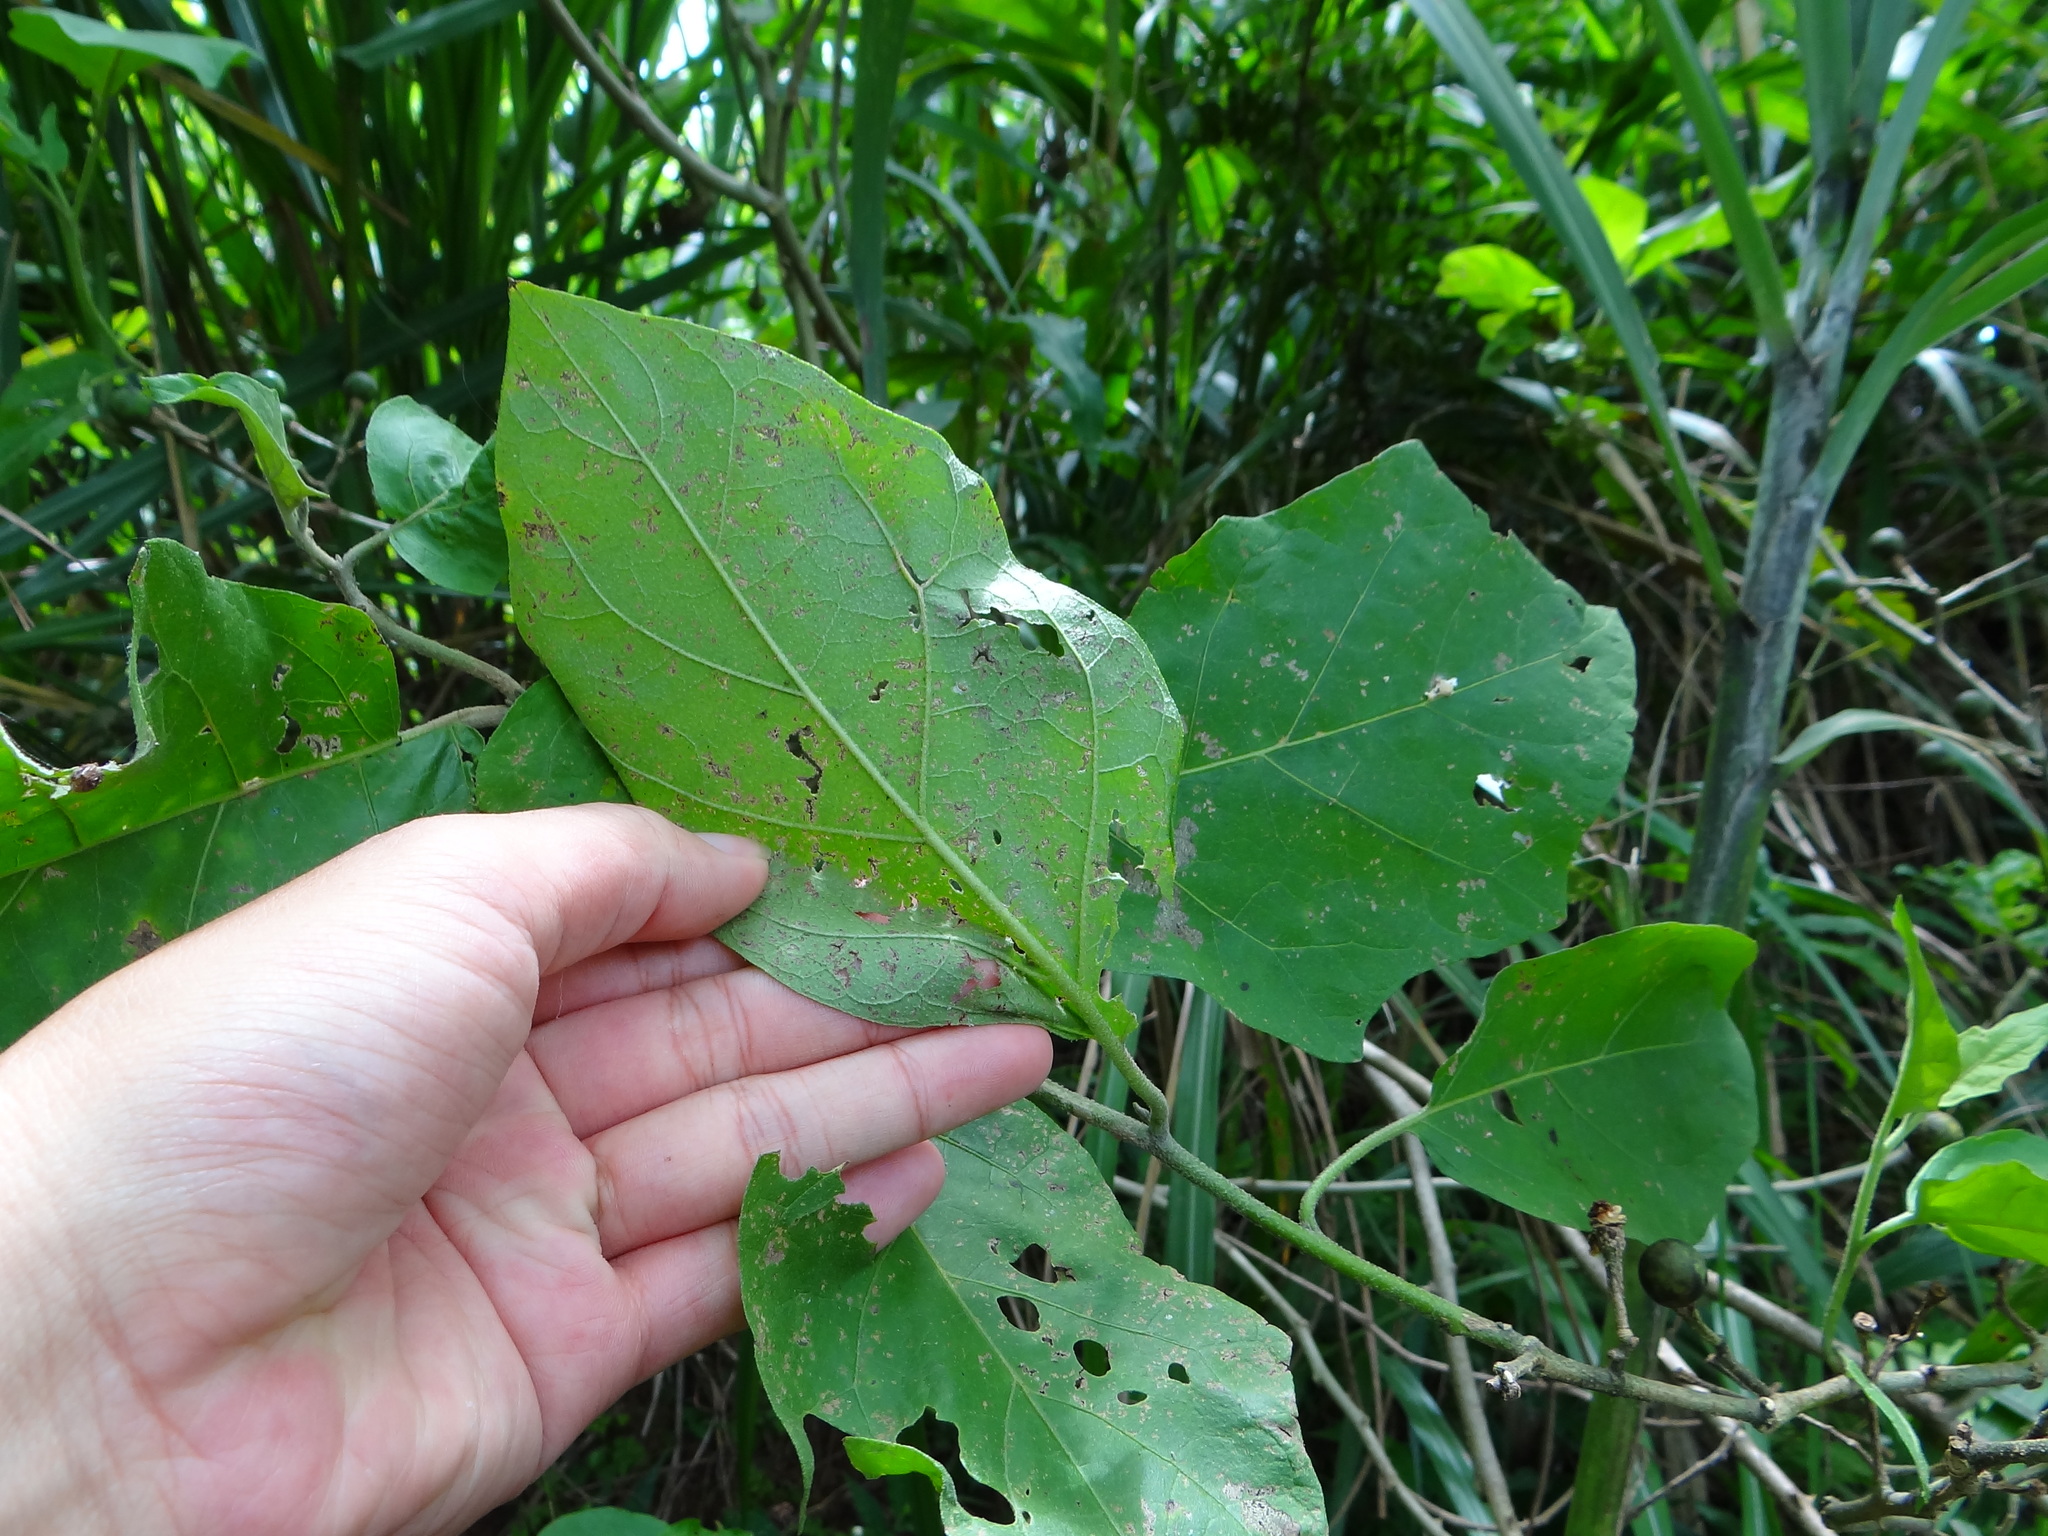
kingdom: Plantae
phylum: Tracheophyta
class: Magnoliopsida
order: Solanales
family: Solanaceae
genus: Solanum
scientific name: Solanum torvum
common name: Turkey berry
